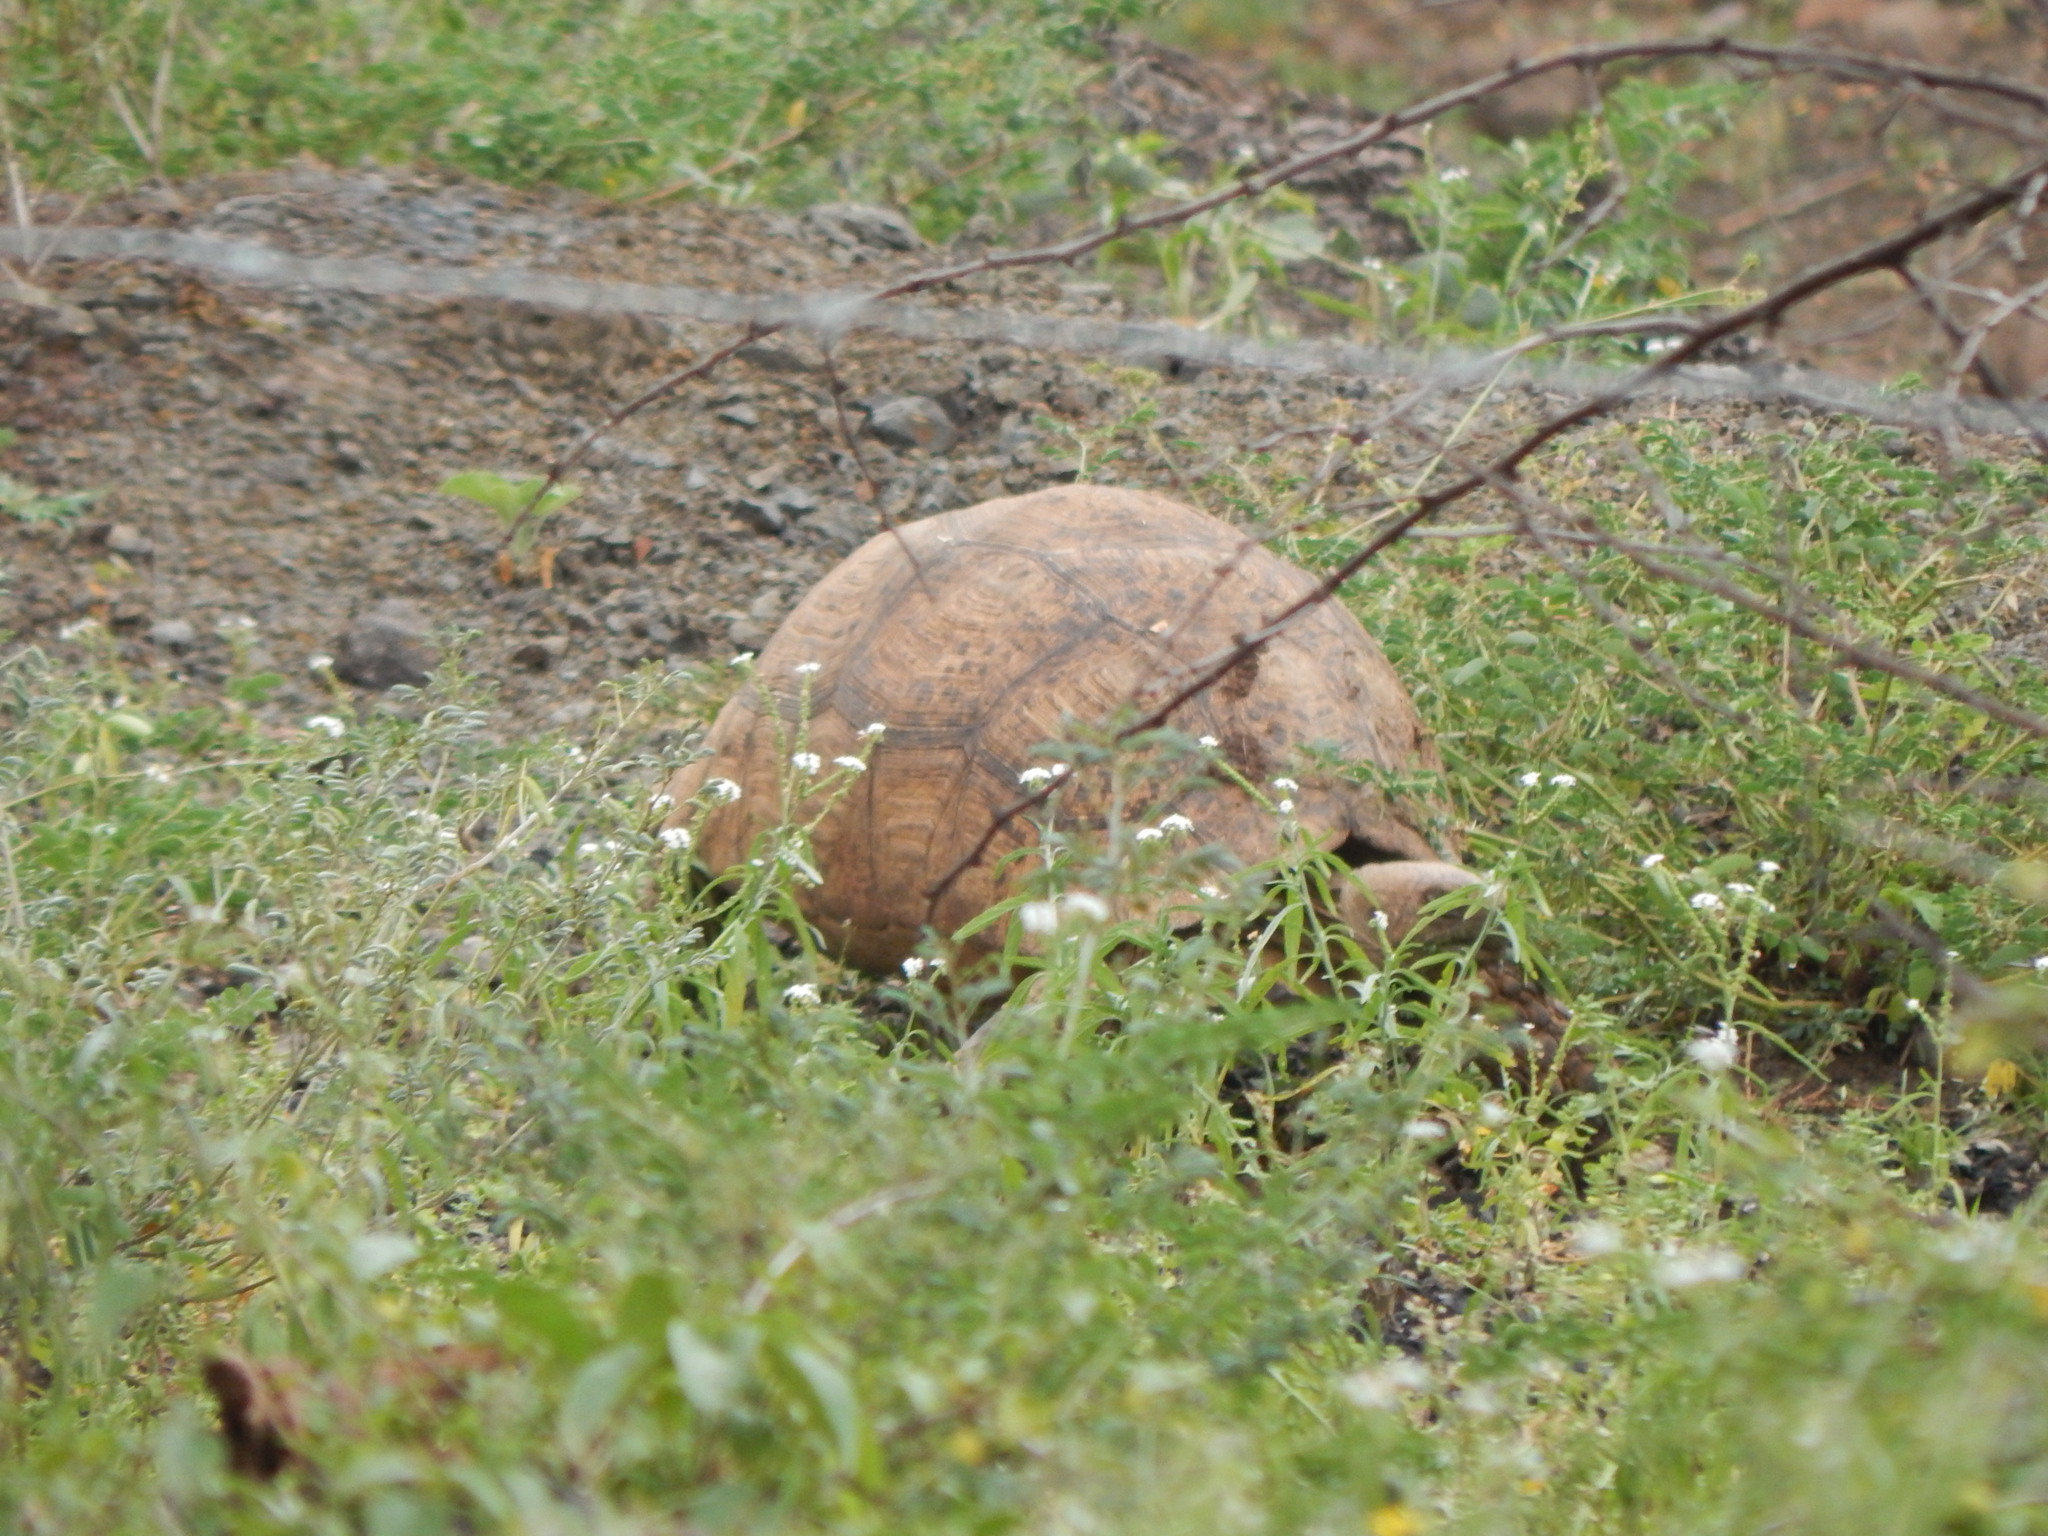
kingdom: Animalia
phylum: Chordata
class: Testudines
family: Testudinidae
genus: Stigmochelys
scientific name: Stigmochelys pardalis
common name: Leopard tortoise
